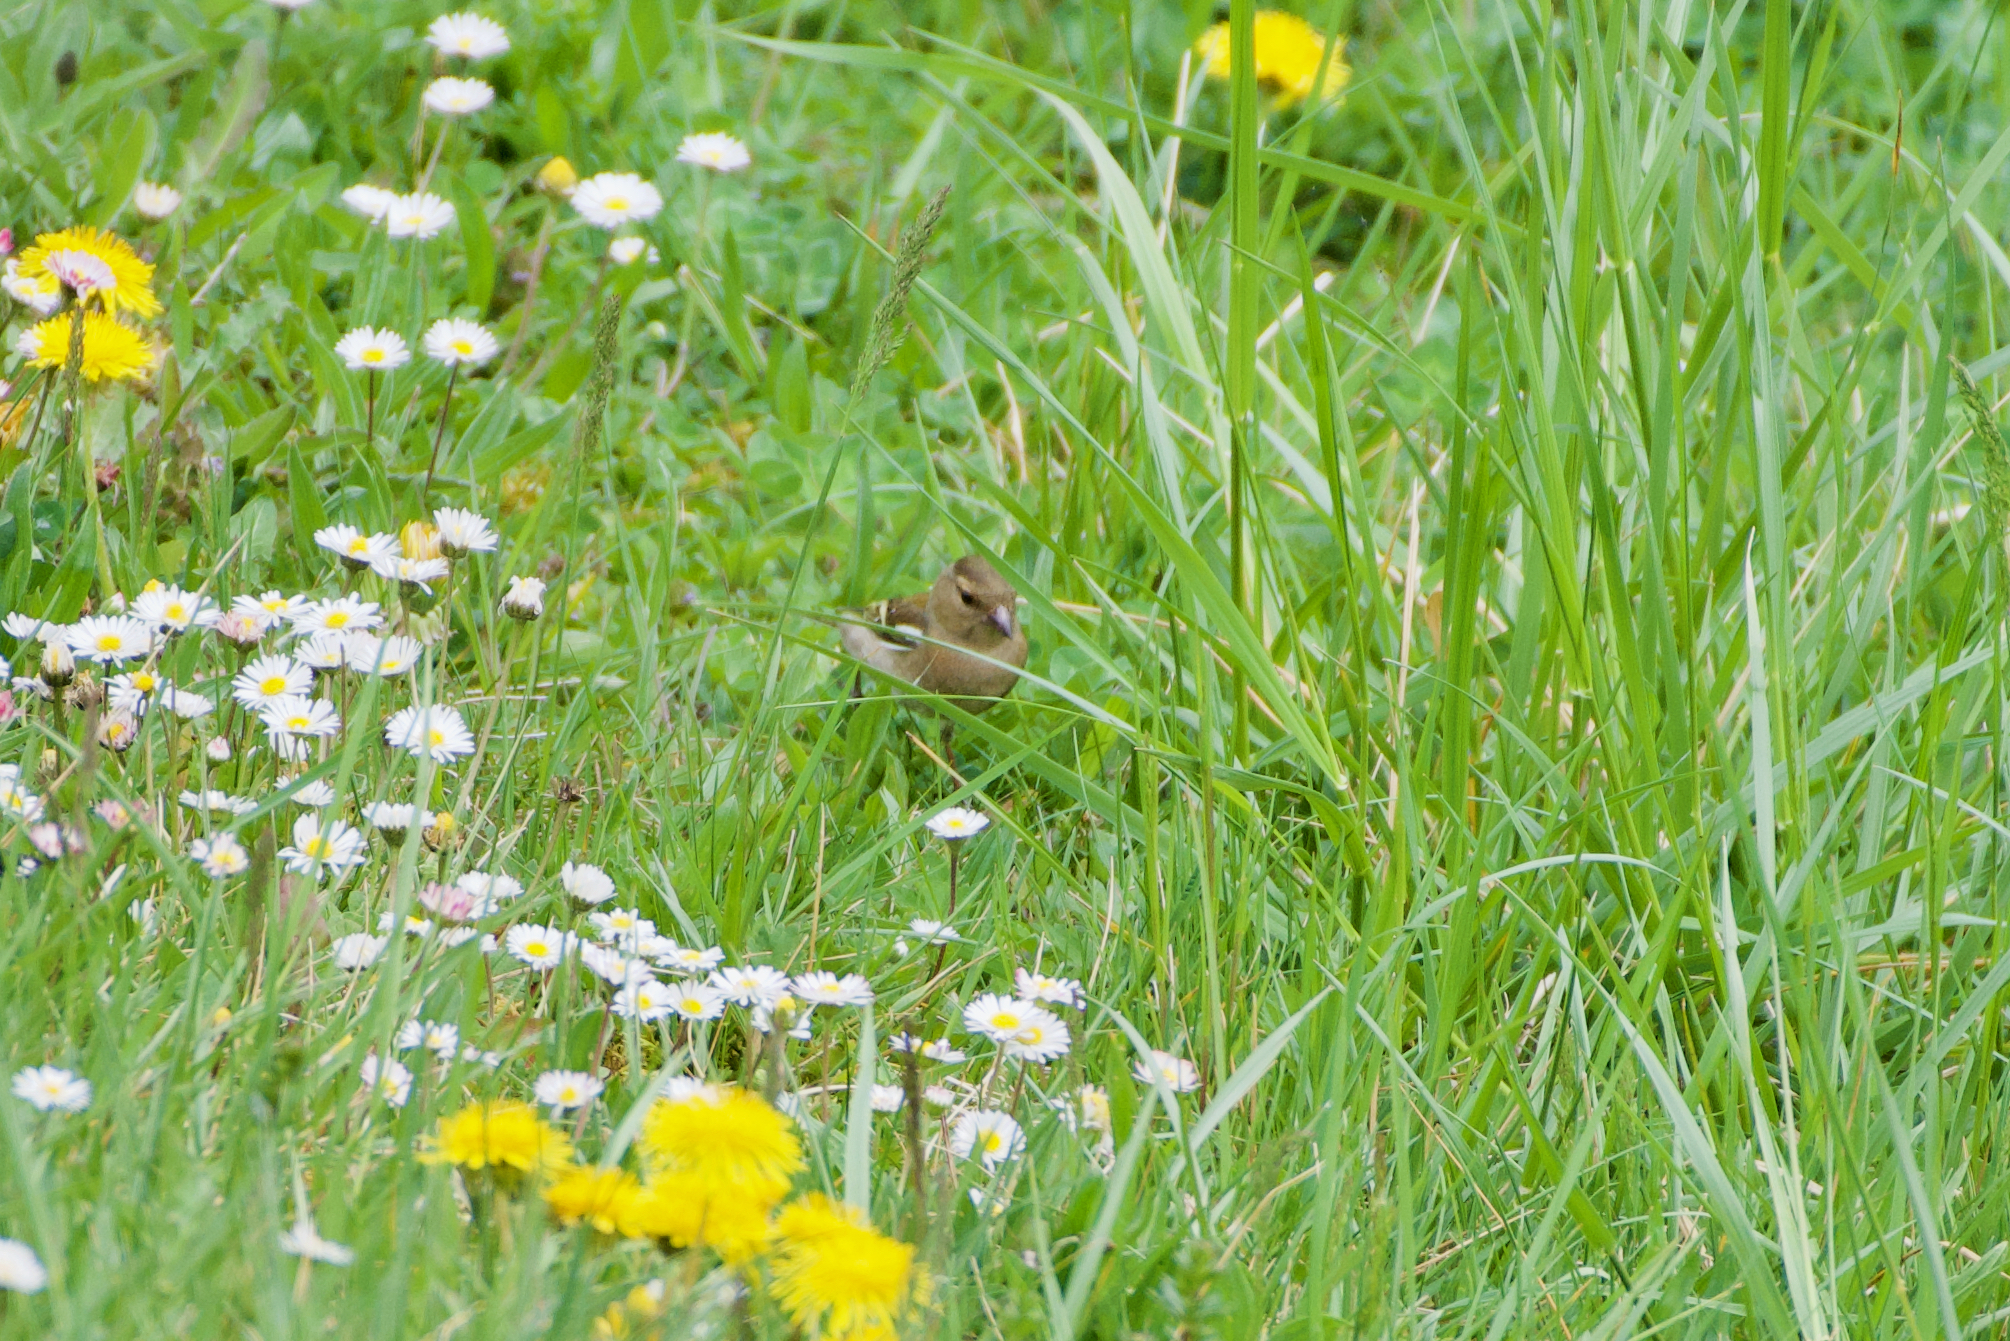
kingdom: Animalia
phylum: Chordata
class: Aves
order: Passeriformes
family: Fringillidae
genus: Fringilla
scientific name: Fringilla coelebs
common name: Common chaffinch
